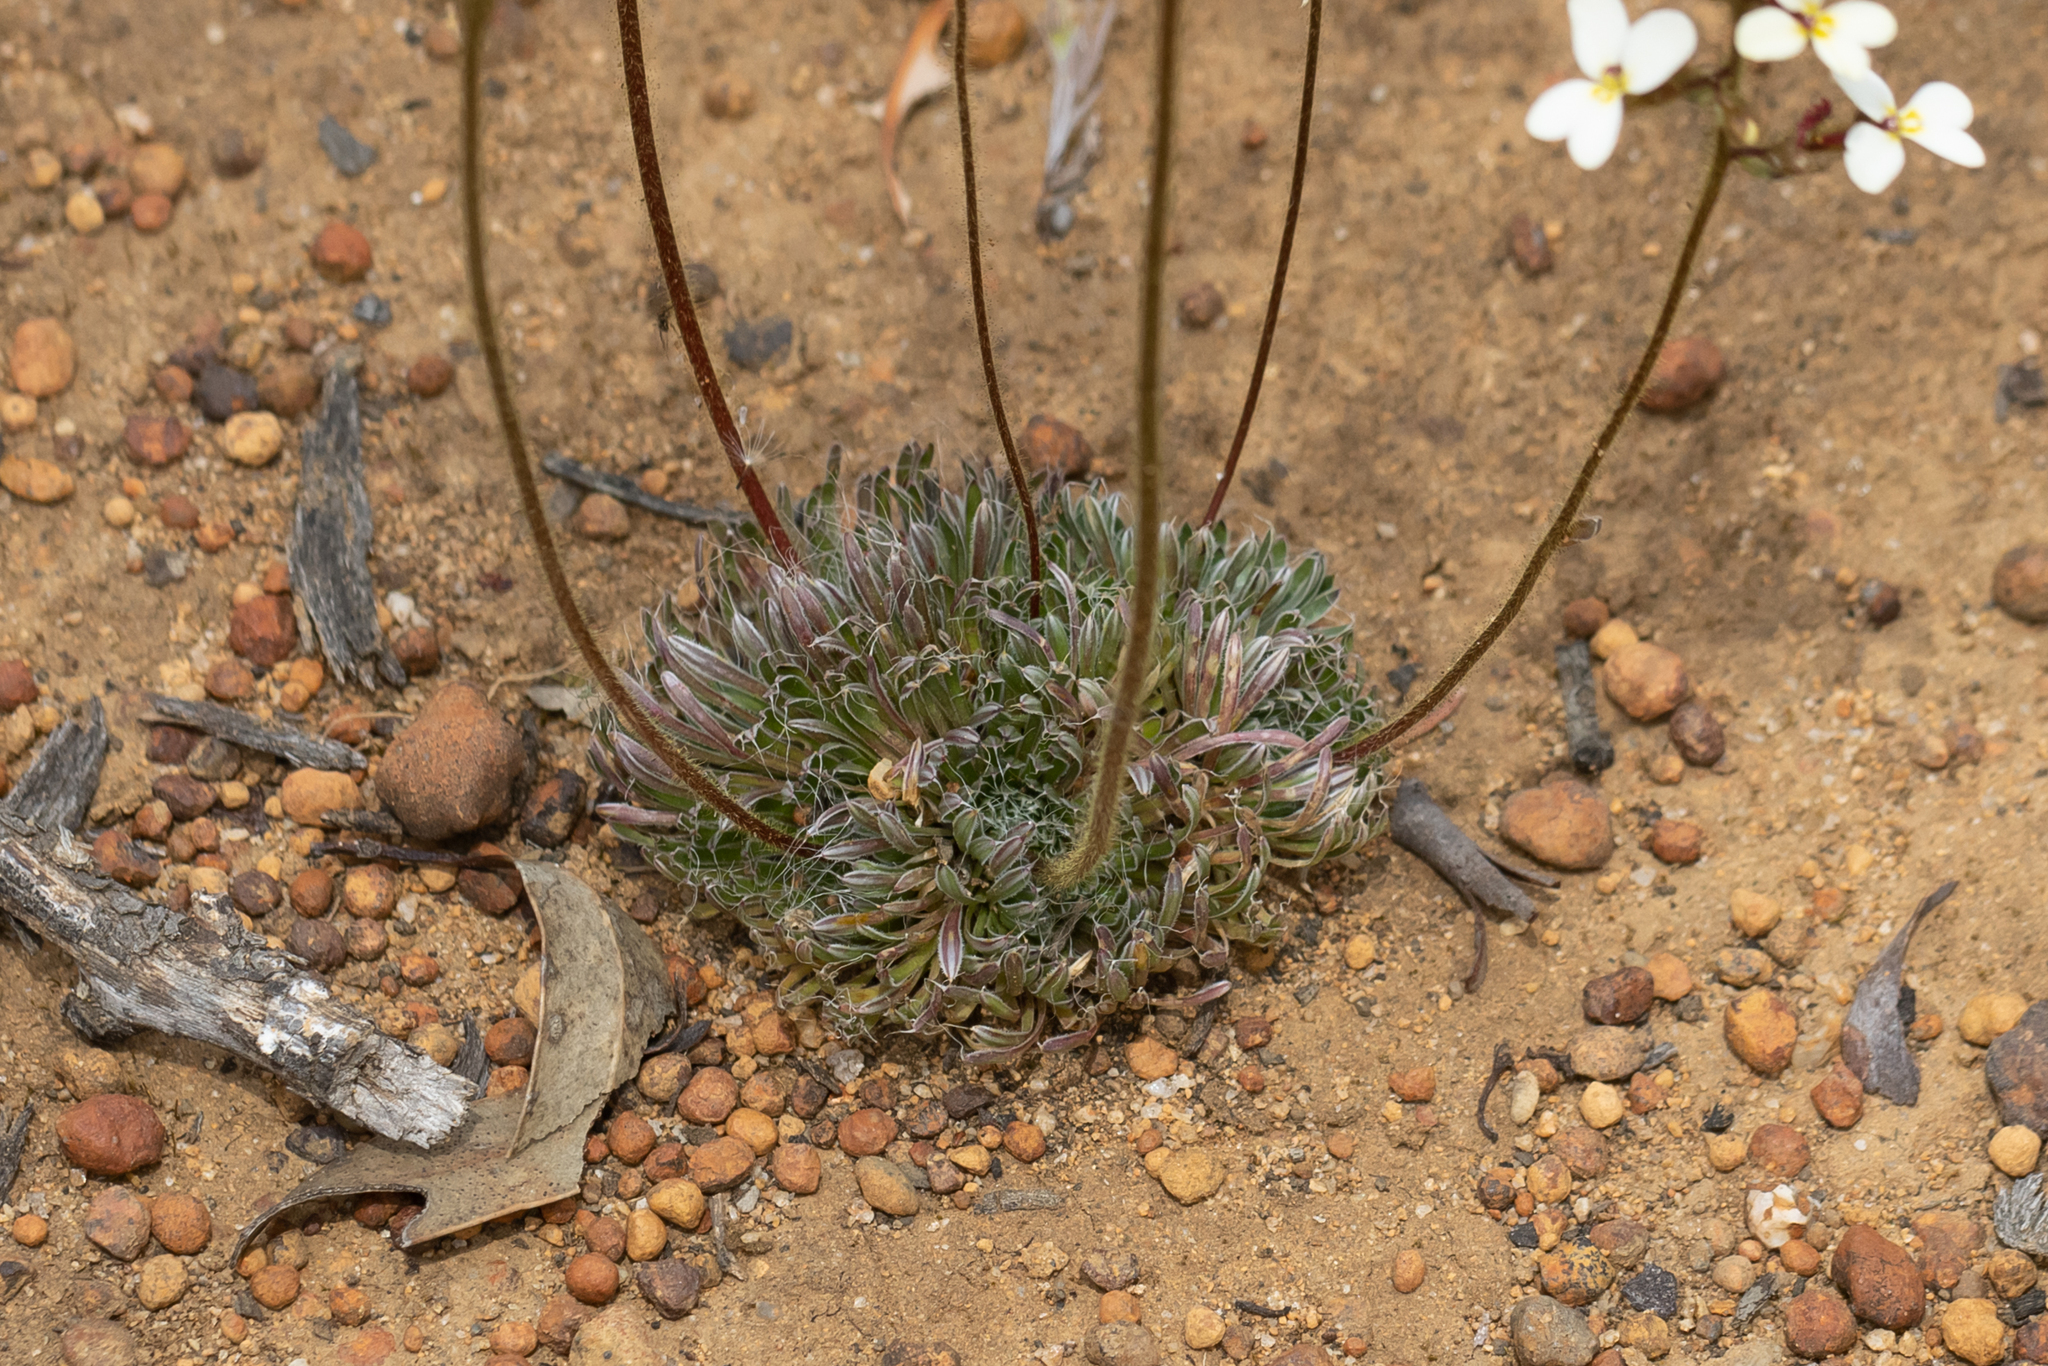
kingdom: Plantae
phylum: Tracheophyta
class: Magnoliopsida
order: Asterales
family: Stylidiaceae
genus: Stylidium
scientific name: Stylidium ciliatum
